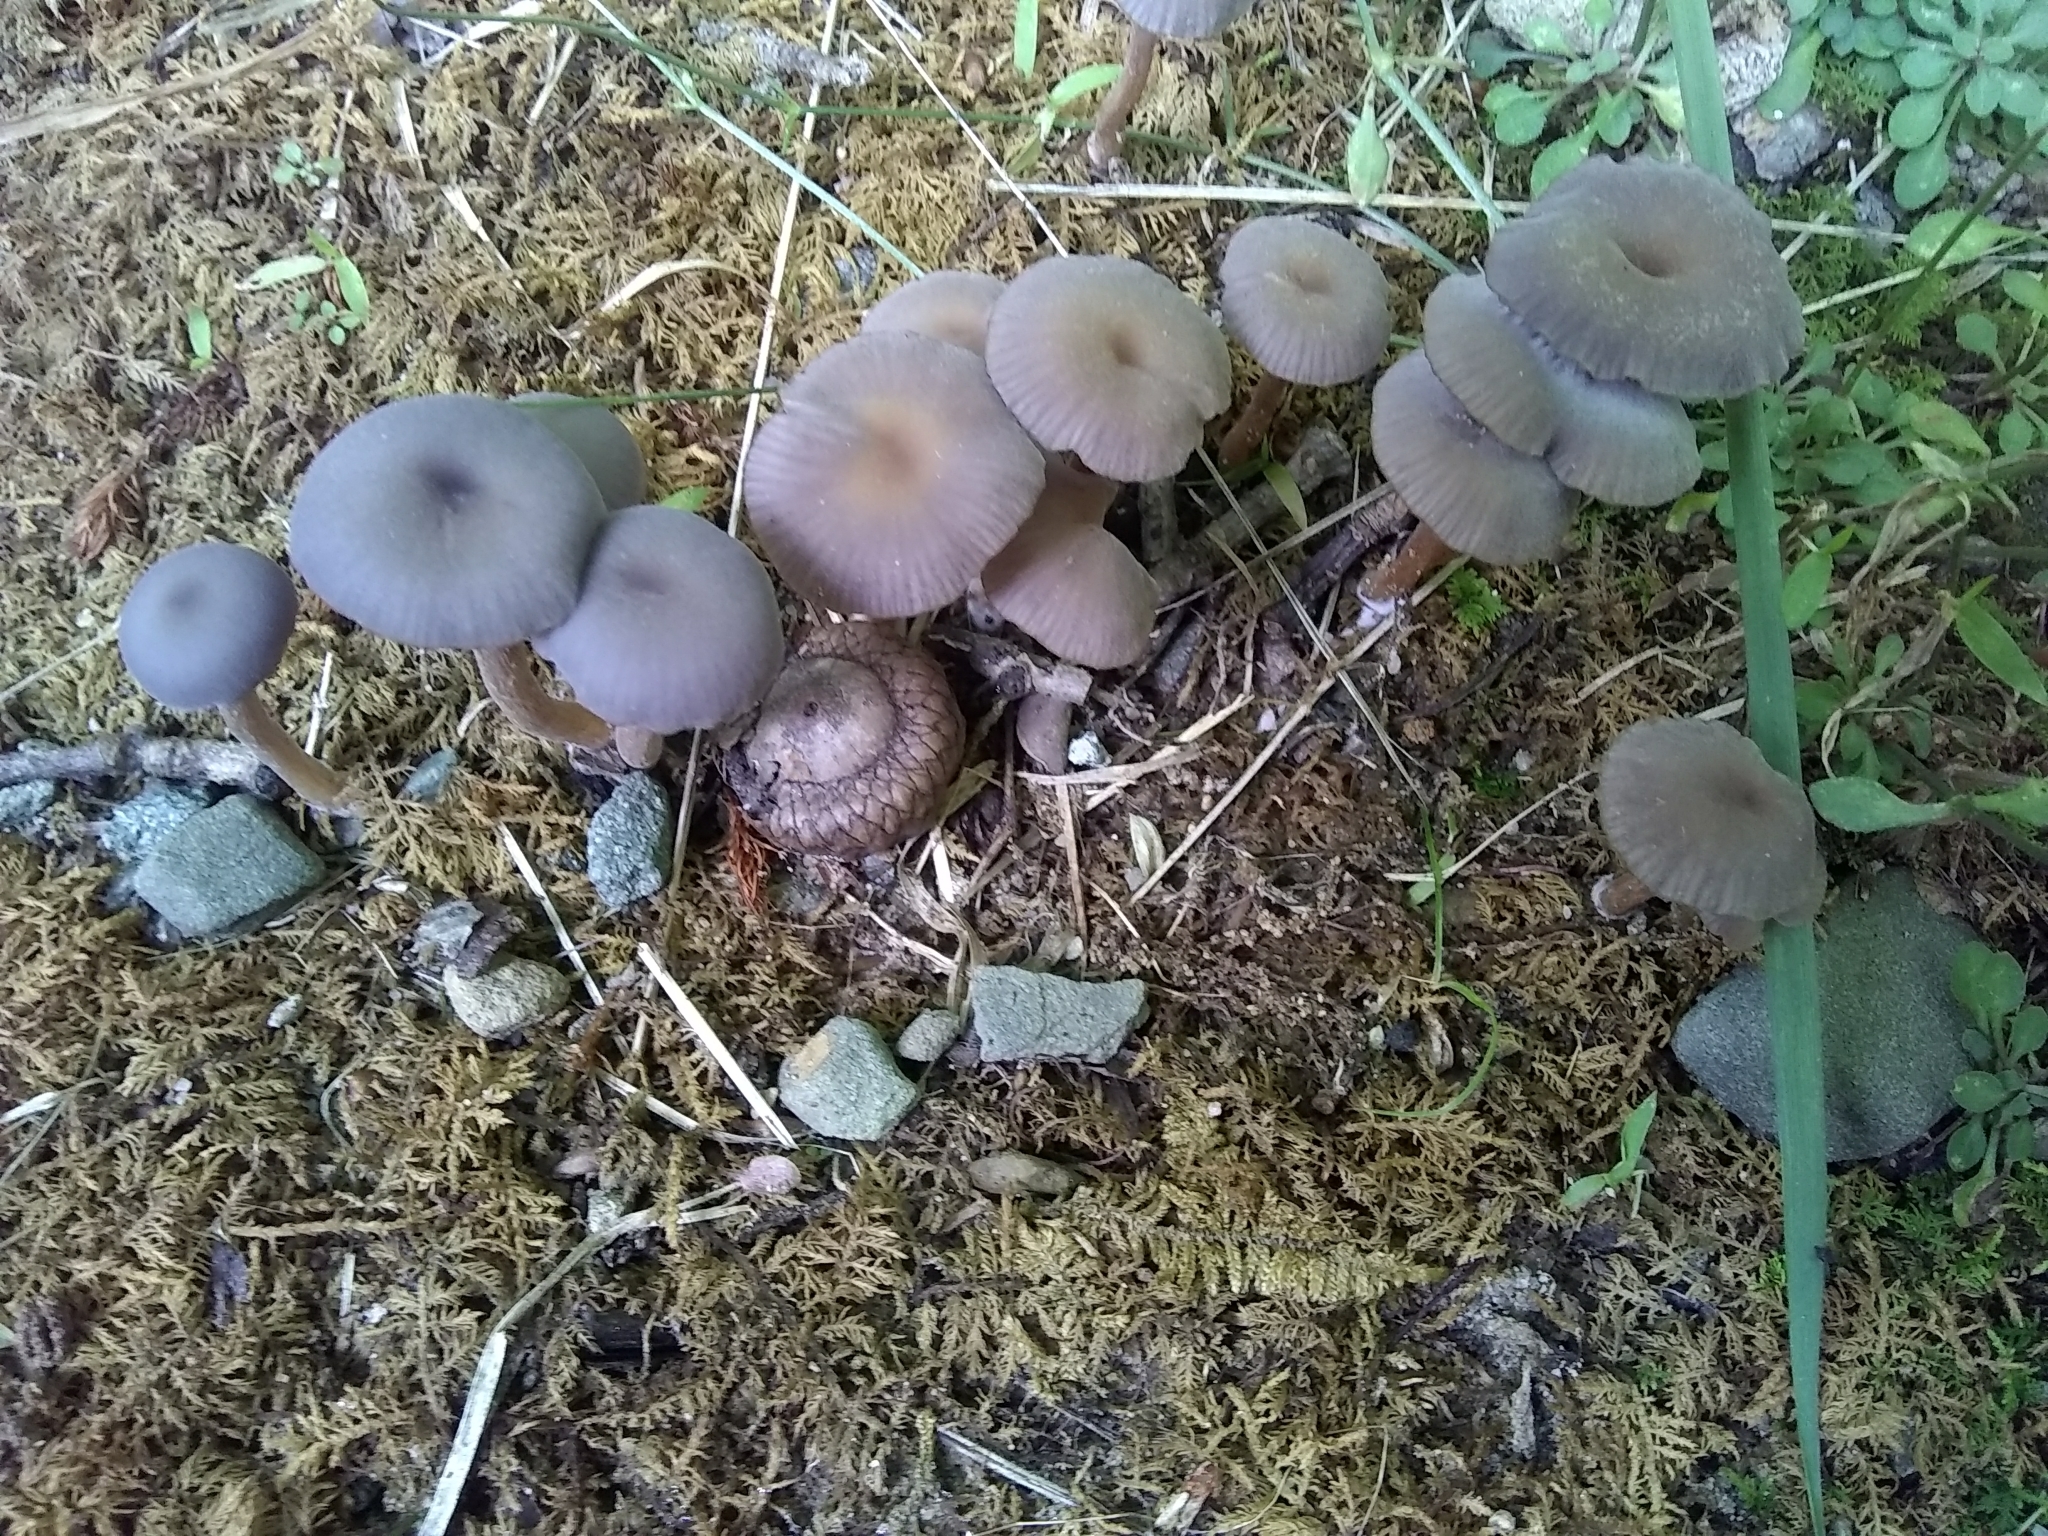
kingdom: Fungi
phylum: Basidiomycota
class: Agaricomycetes
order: Agaricales
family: Hydnangiaceae
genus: Laccaria
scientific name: Laccaria amethystina
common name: Amethyst deceiver
